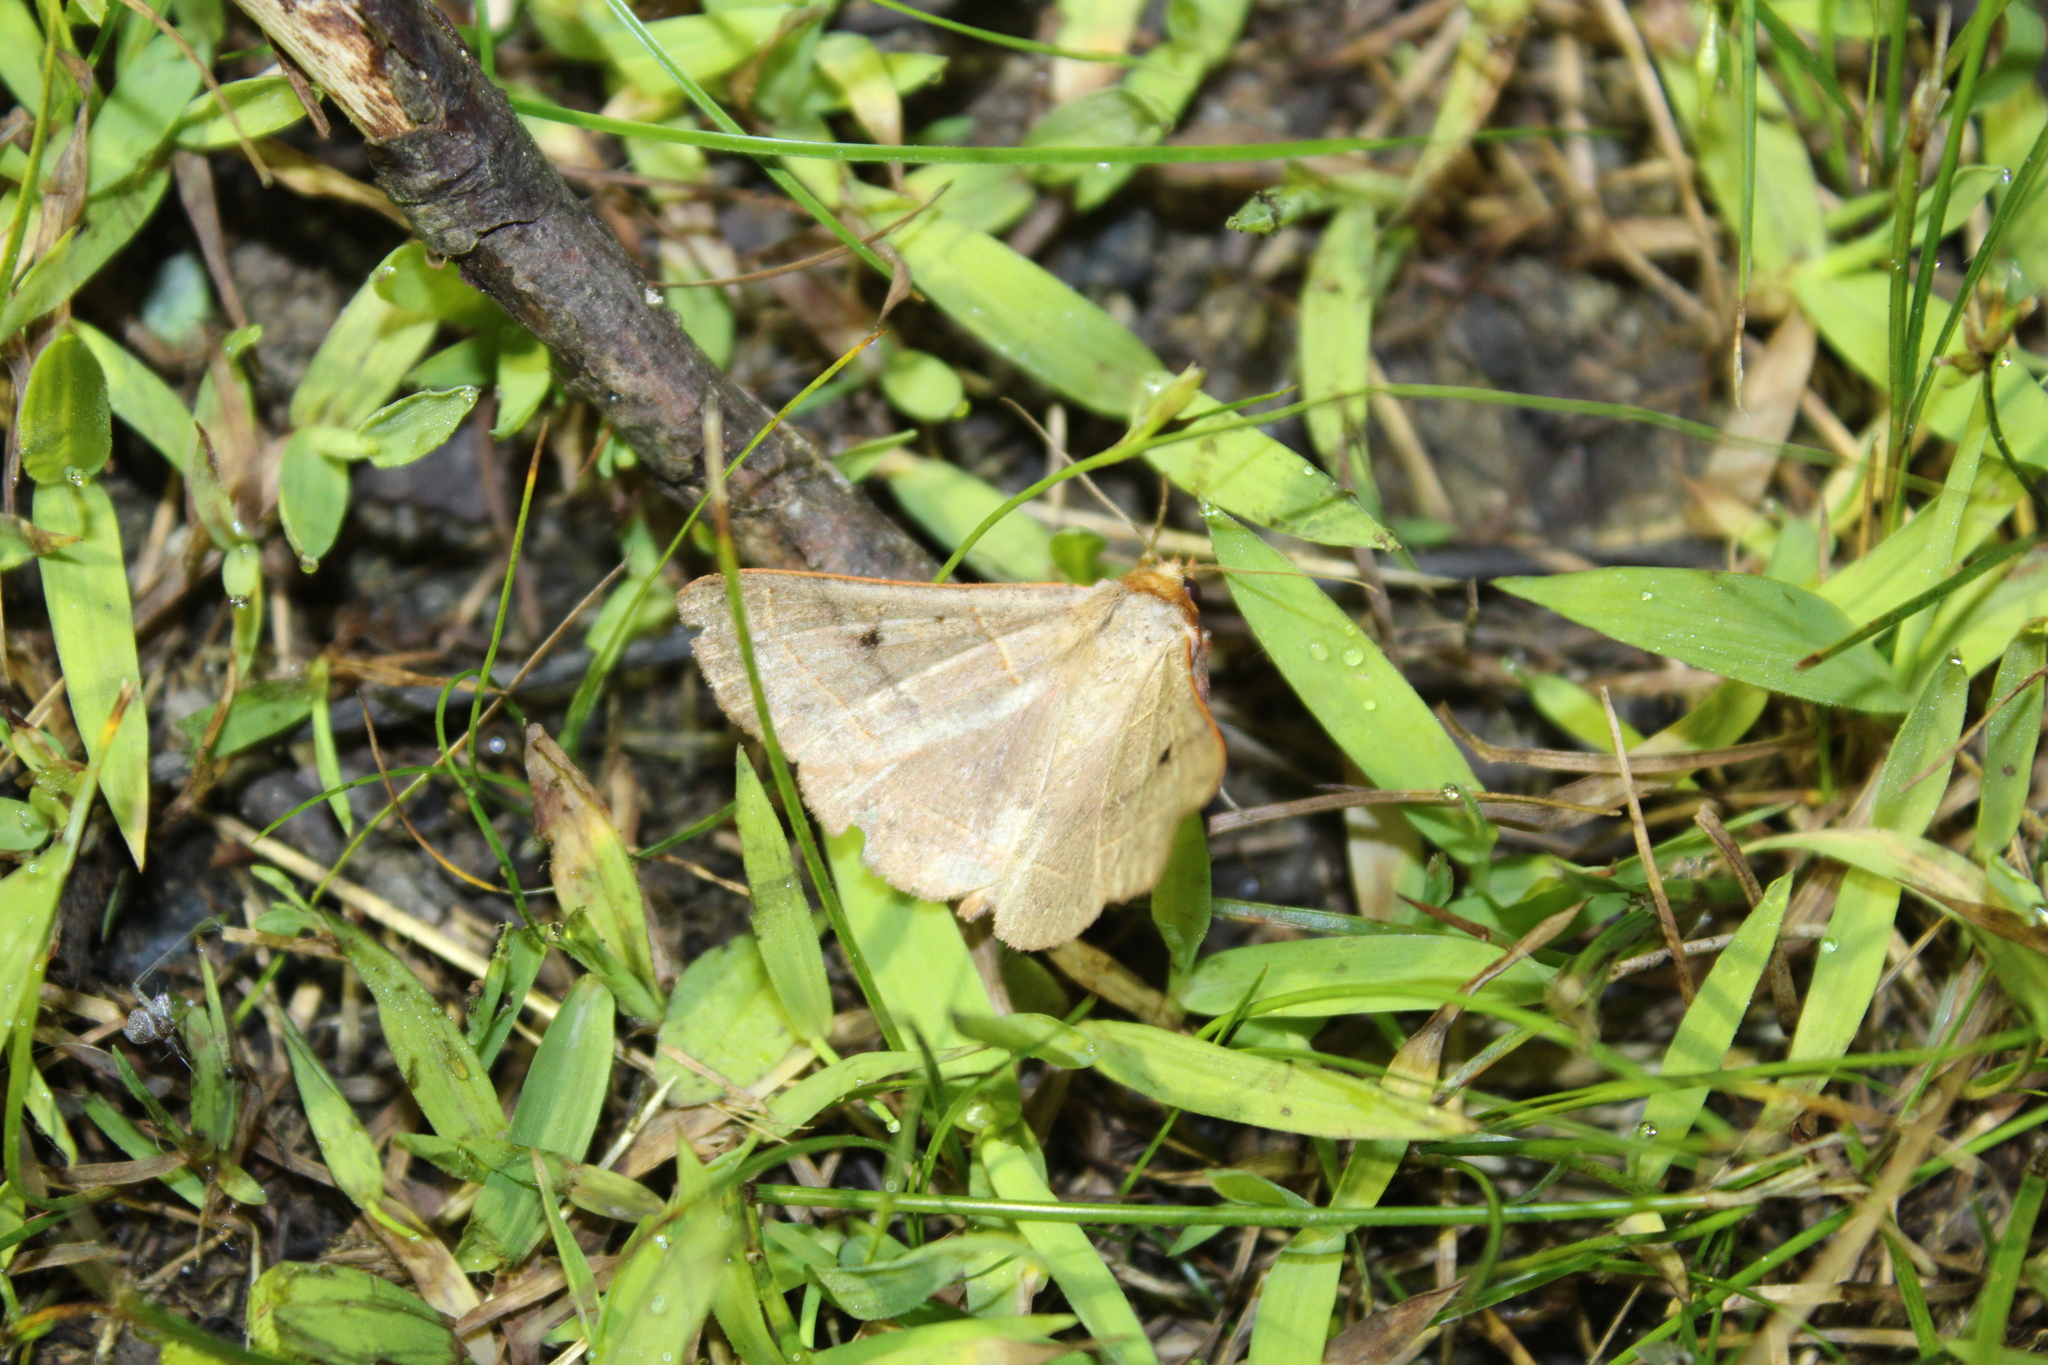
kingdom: Animalia
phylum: Arthropoda
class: Insecta
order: Lepidoptera
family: Erebidae
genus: Panopoda
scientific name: Panopoda rufimargo
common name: Red-lined panopoda moth
